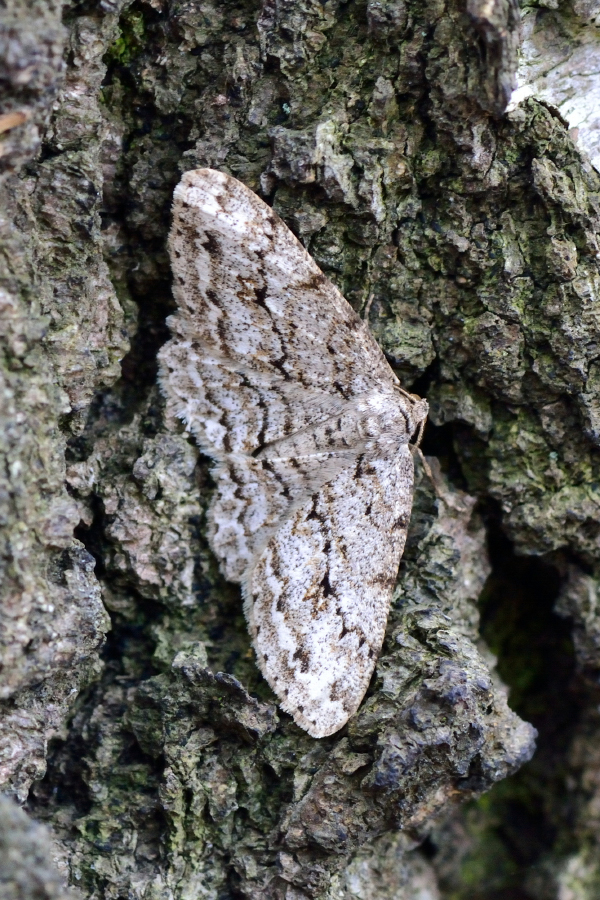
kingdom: Animalia
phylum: Arthropoda
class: Insecta
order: Lepidoptera
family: Geometridae
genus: Ectropis
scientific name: Ectropis crepuscularia
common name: Engrailed
